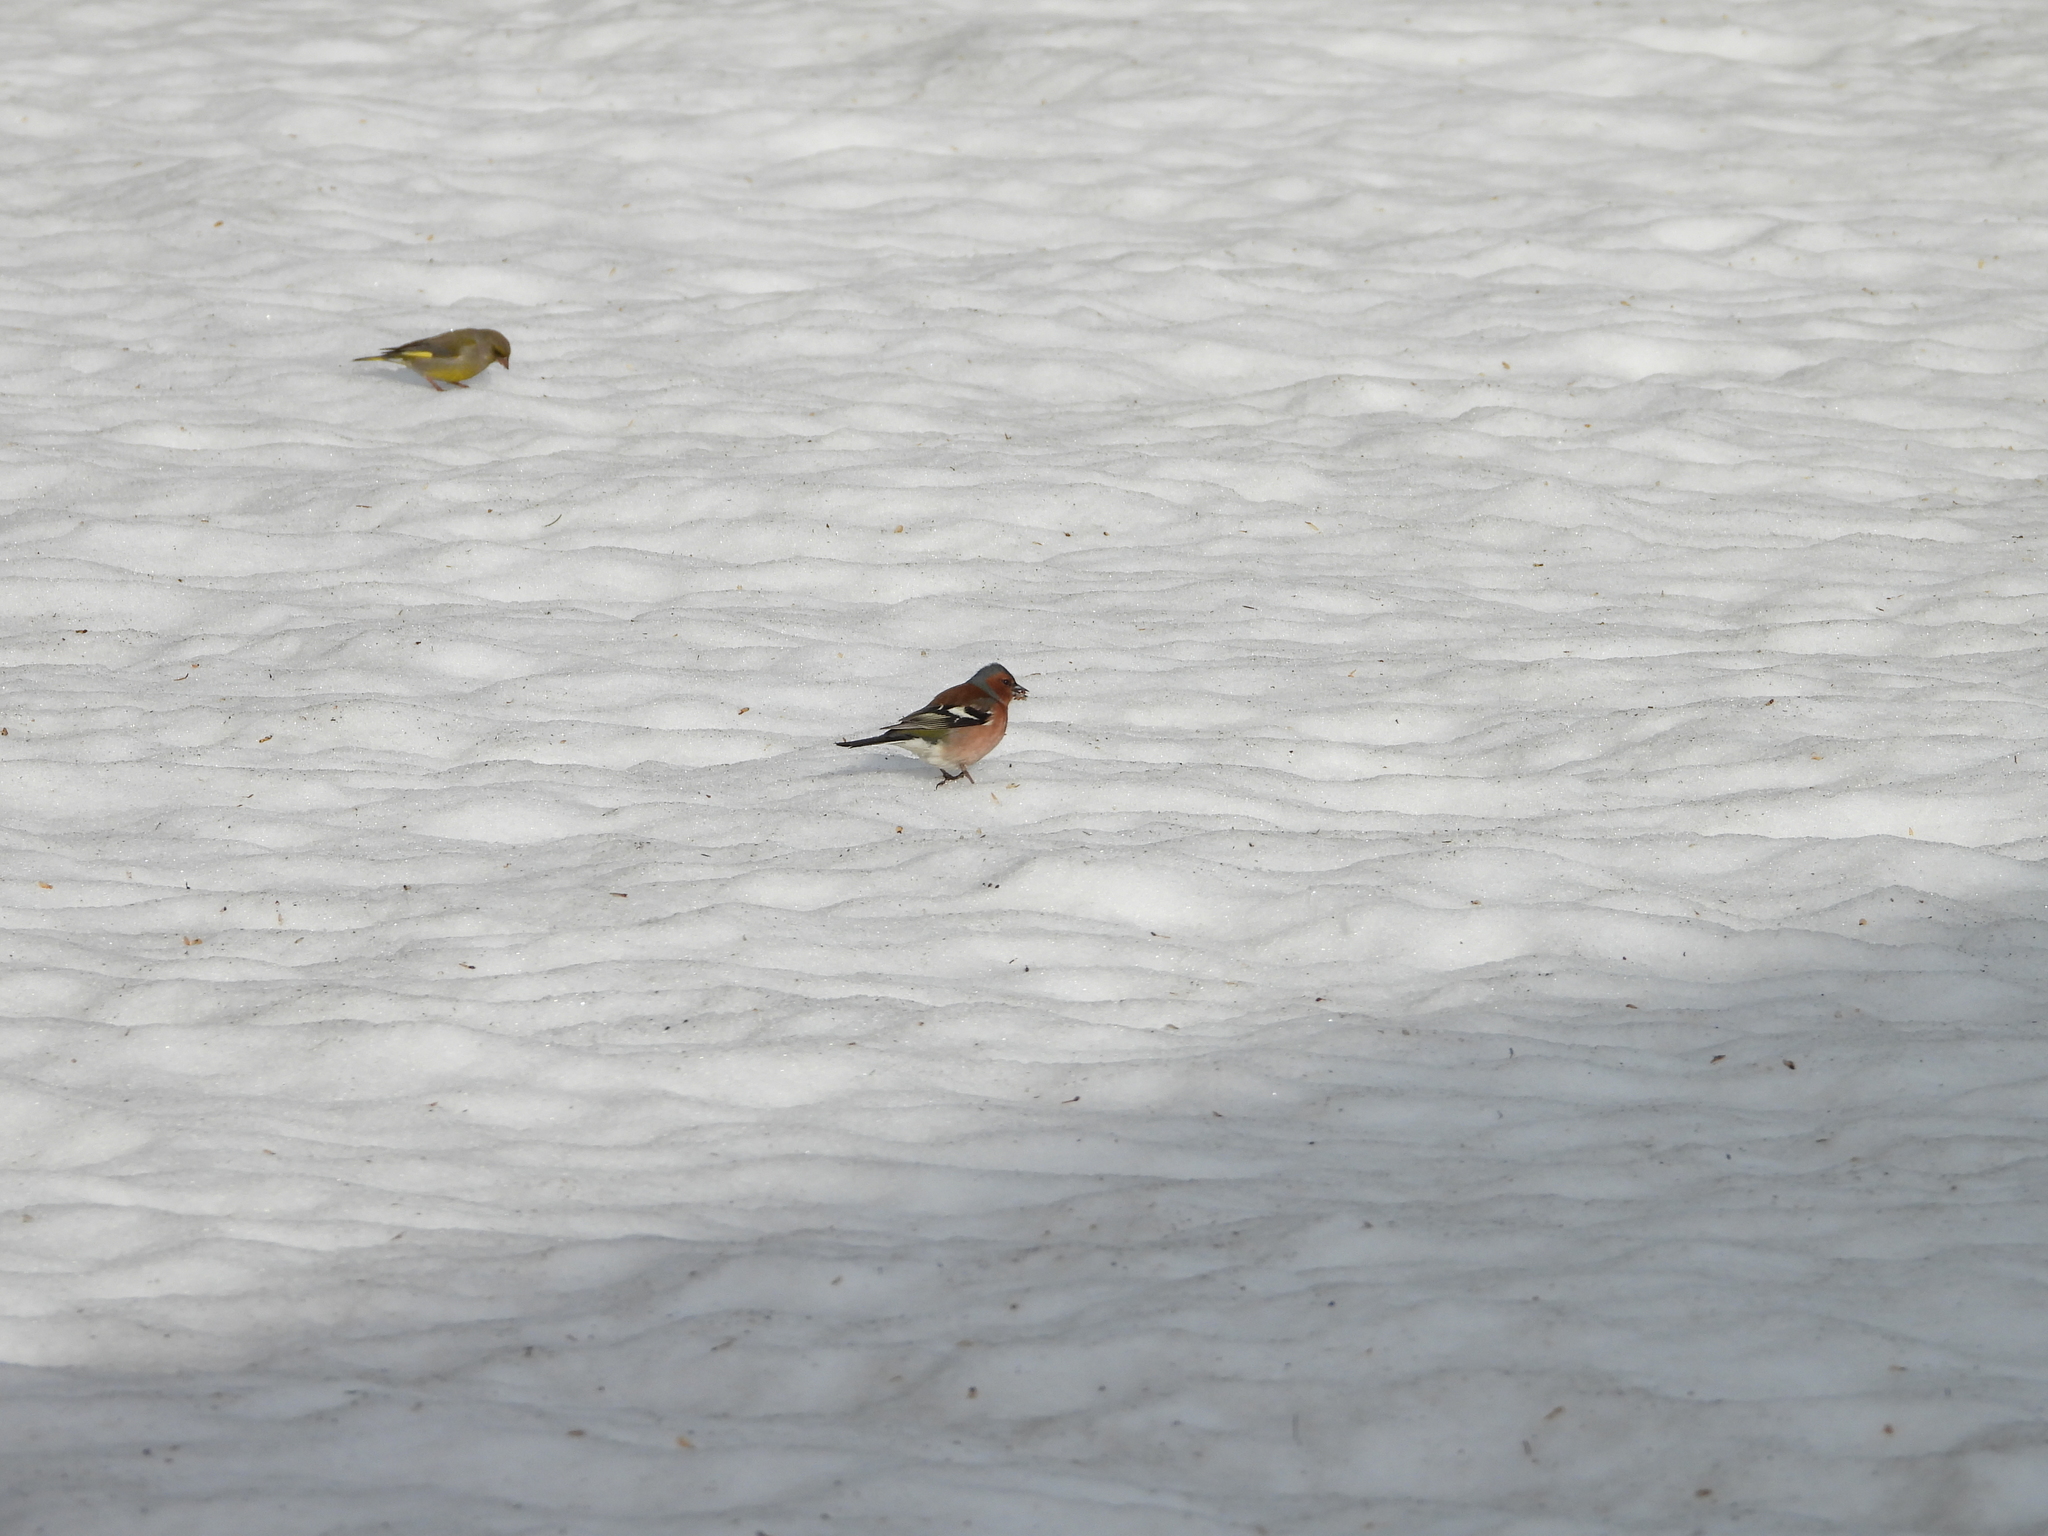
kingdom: Animalia
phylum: Chordata
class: Aves
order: Passeriformes
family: Fringillidae
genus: Fringilla
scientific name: Fringilla coelebs
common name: Common chaffinch
